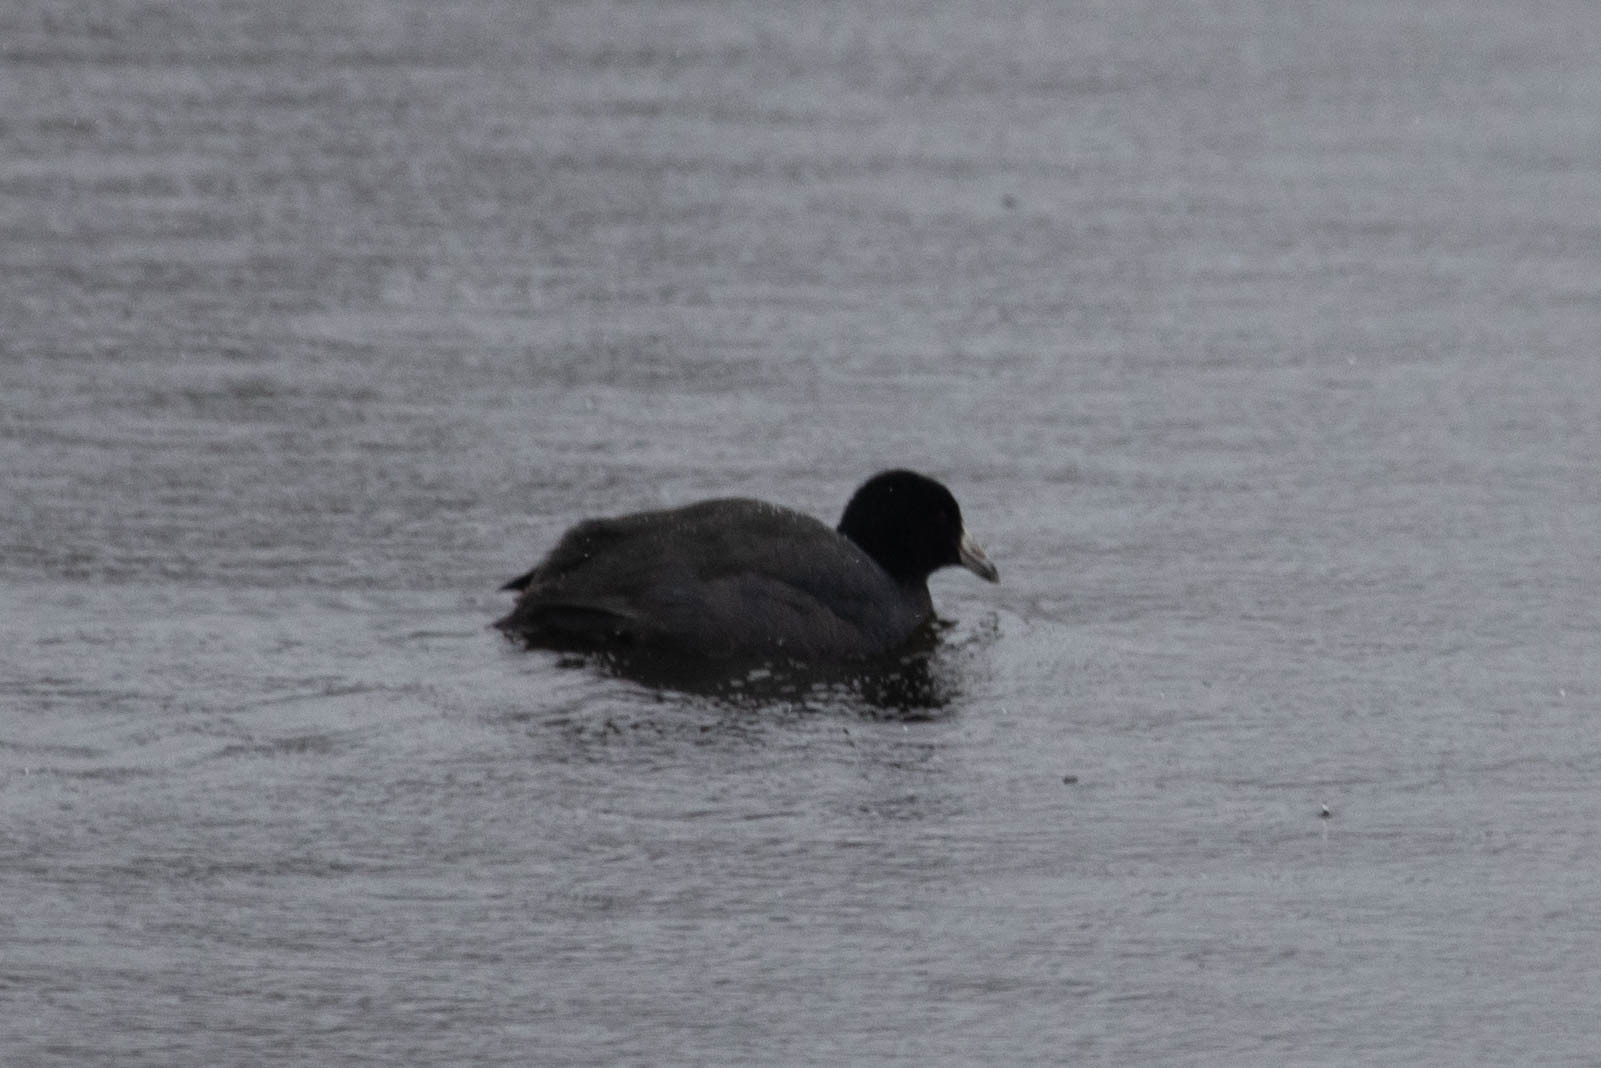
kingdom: Animalia
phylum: Chordata
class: Aves
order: Gruiformes
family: Rallidae
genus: Fulica
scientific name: Fulica americana
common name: American coot
